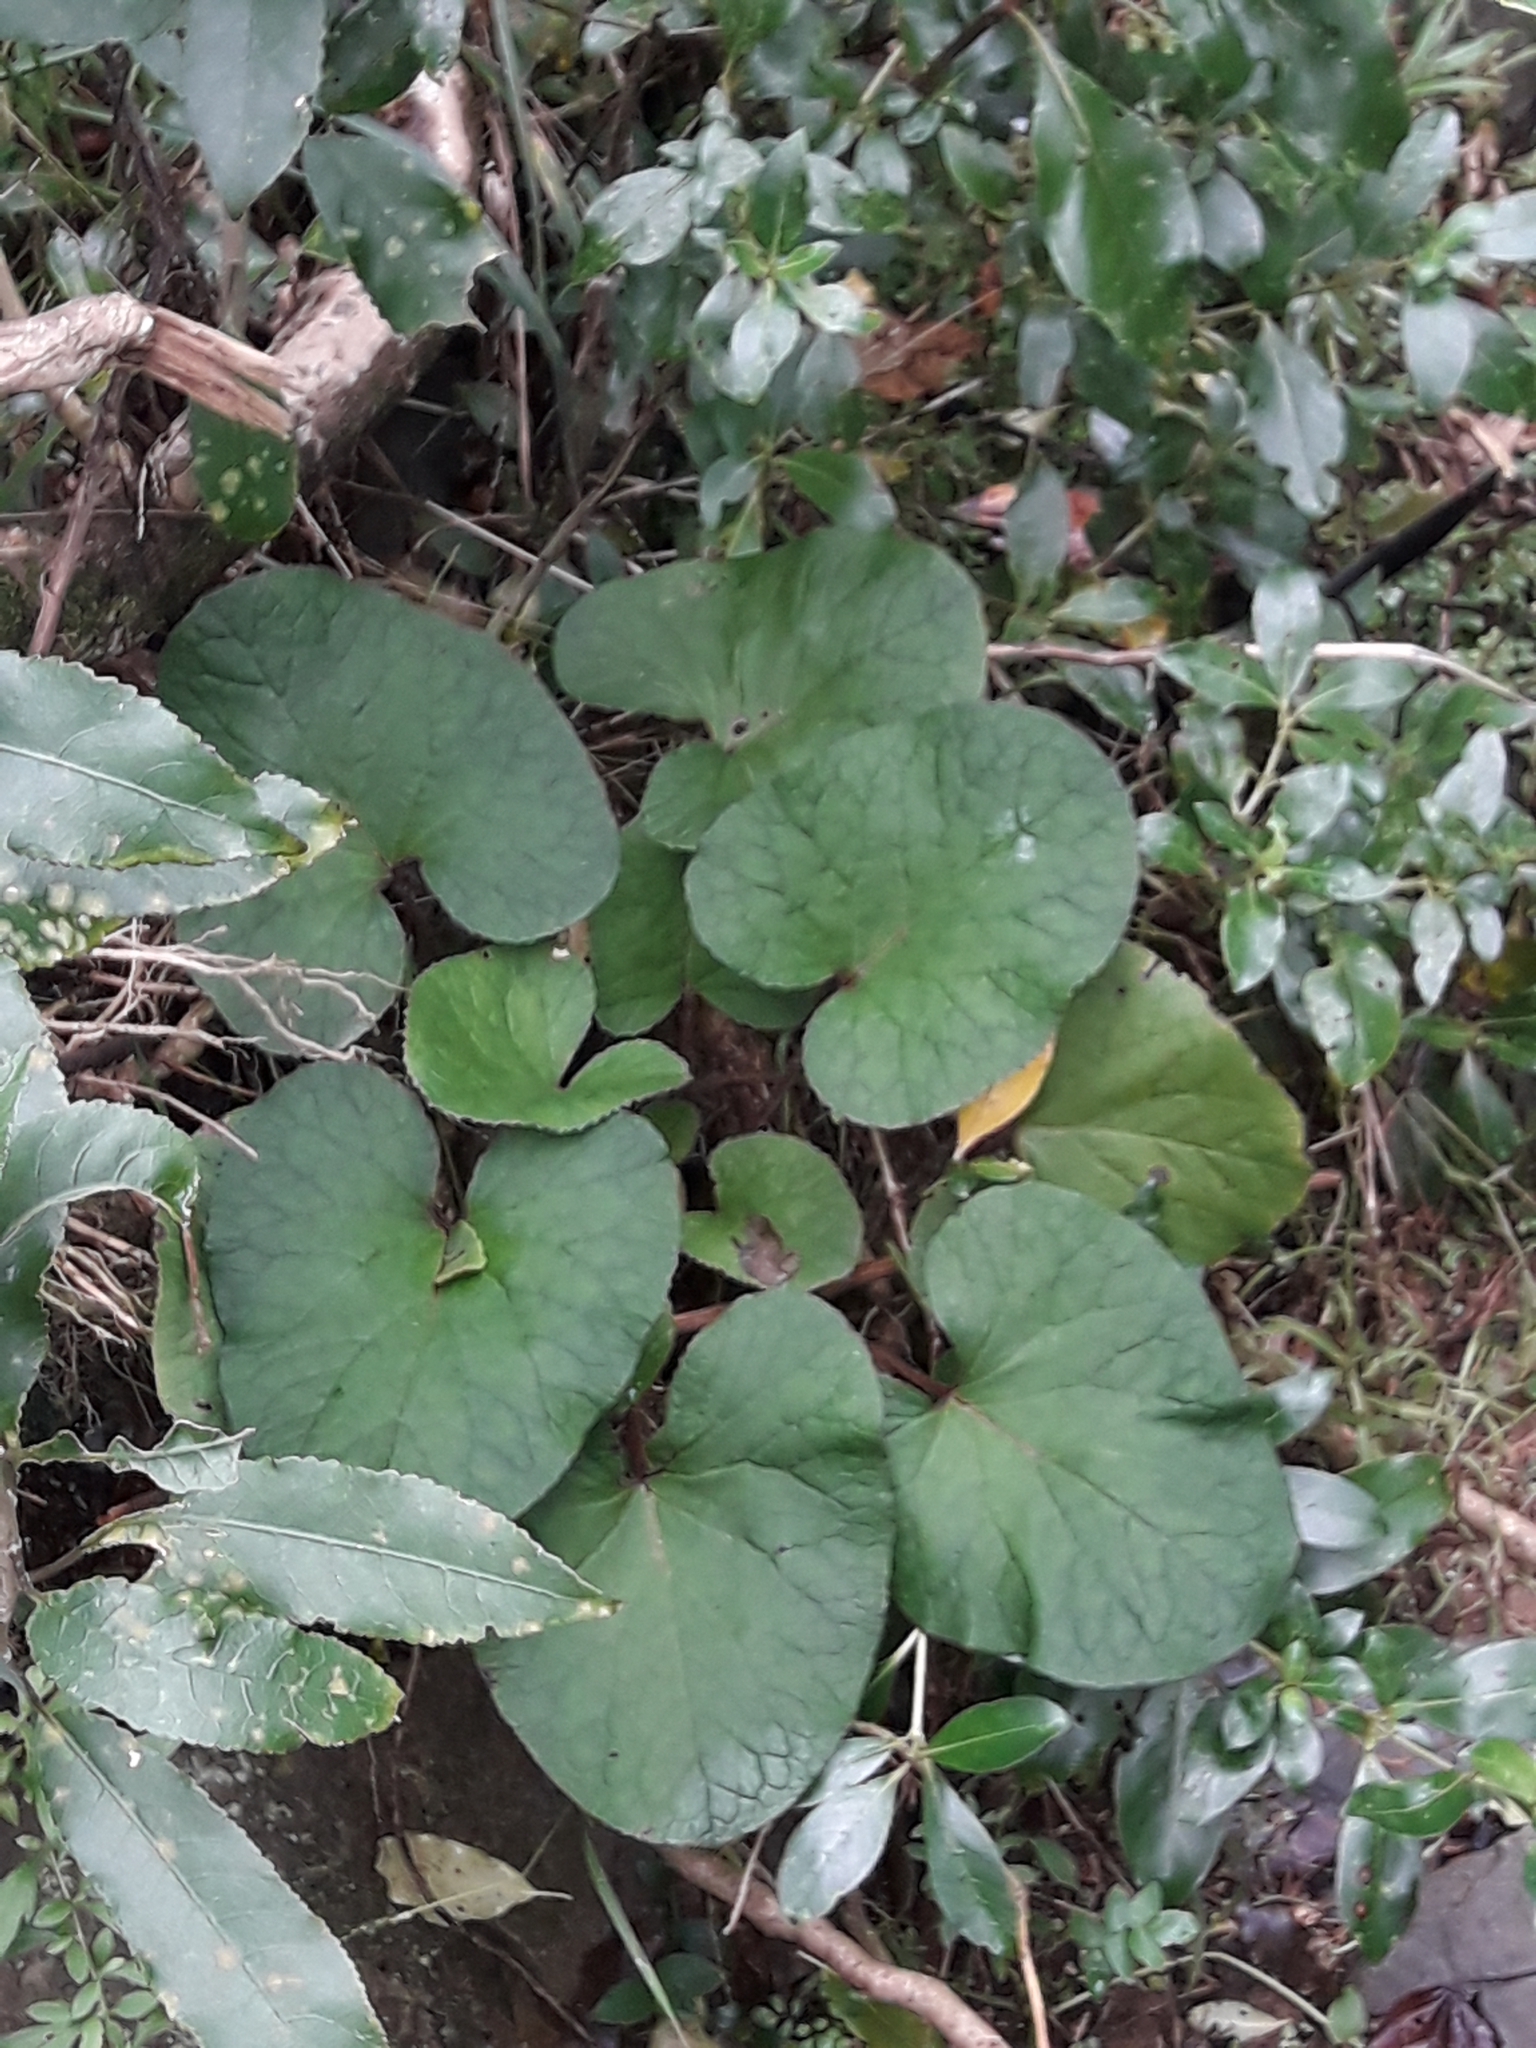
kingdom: Plantae
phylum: Tracheophyta
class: Magnoliopsida
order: Asterales
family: Asteraceae
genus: Petasites
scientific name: Petasites pyrenaicus
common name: Winter heliotrope
